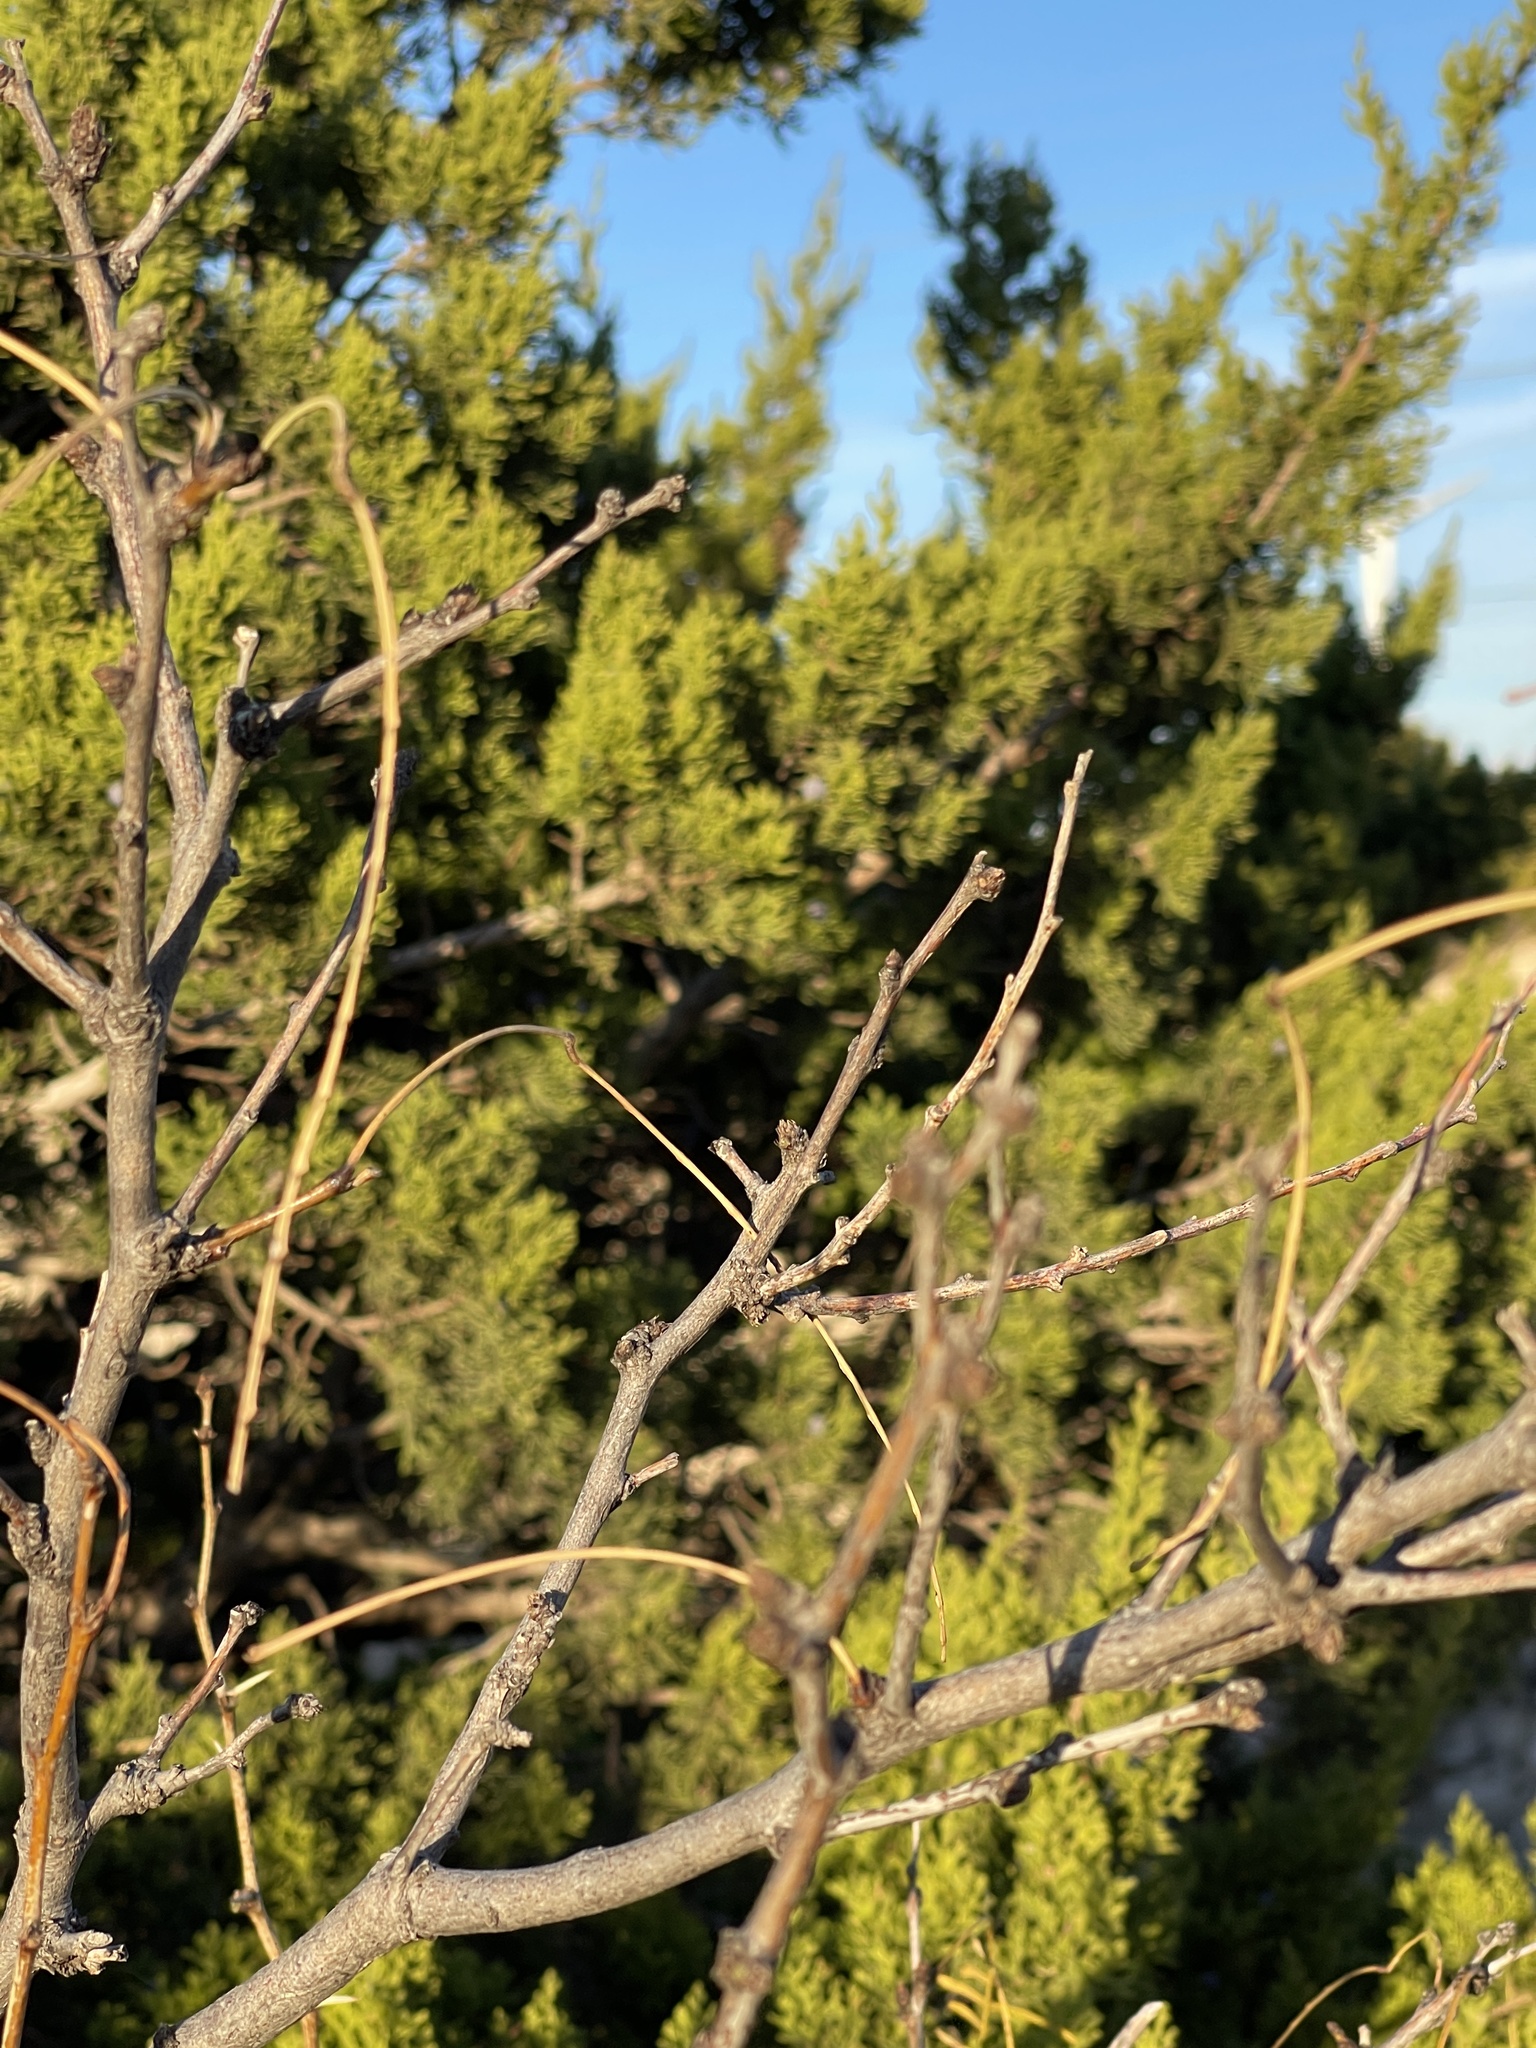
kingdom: Plantae
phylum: Tracheophyta
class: Magnoliopsida
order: Fabales
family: Fabaceae
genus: Prosopis
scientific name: Prosopis glandulosa
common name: Honey mesquite
